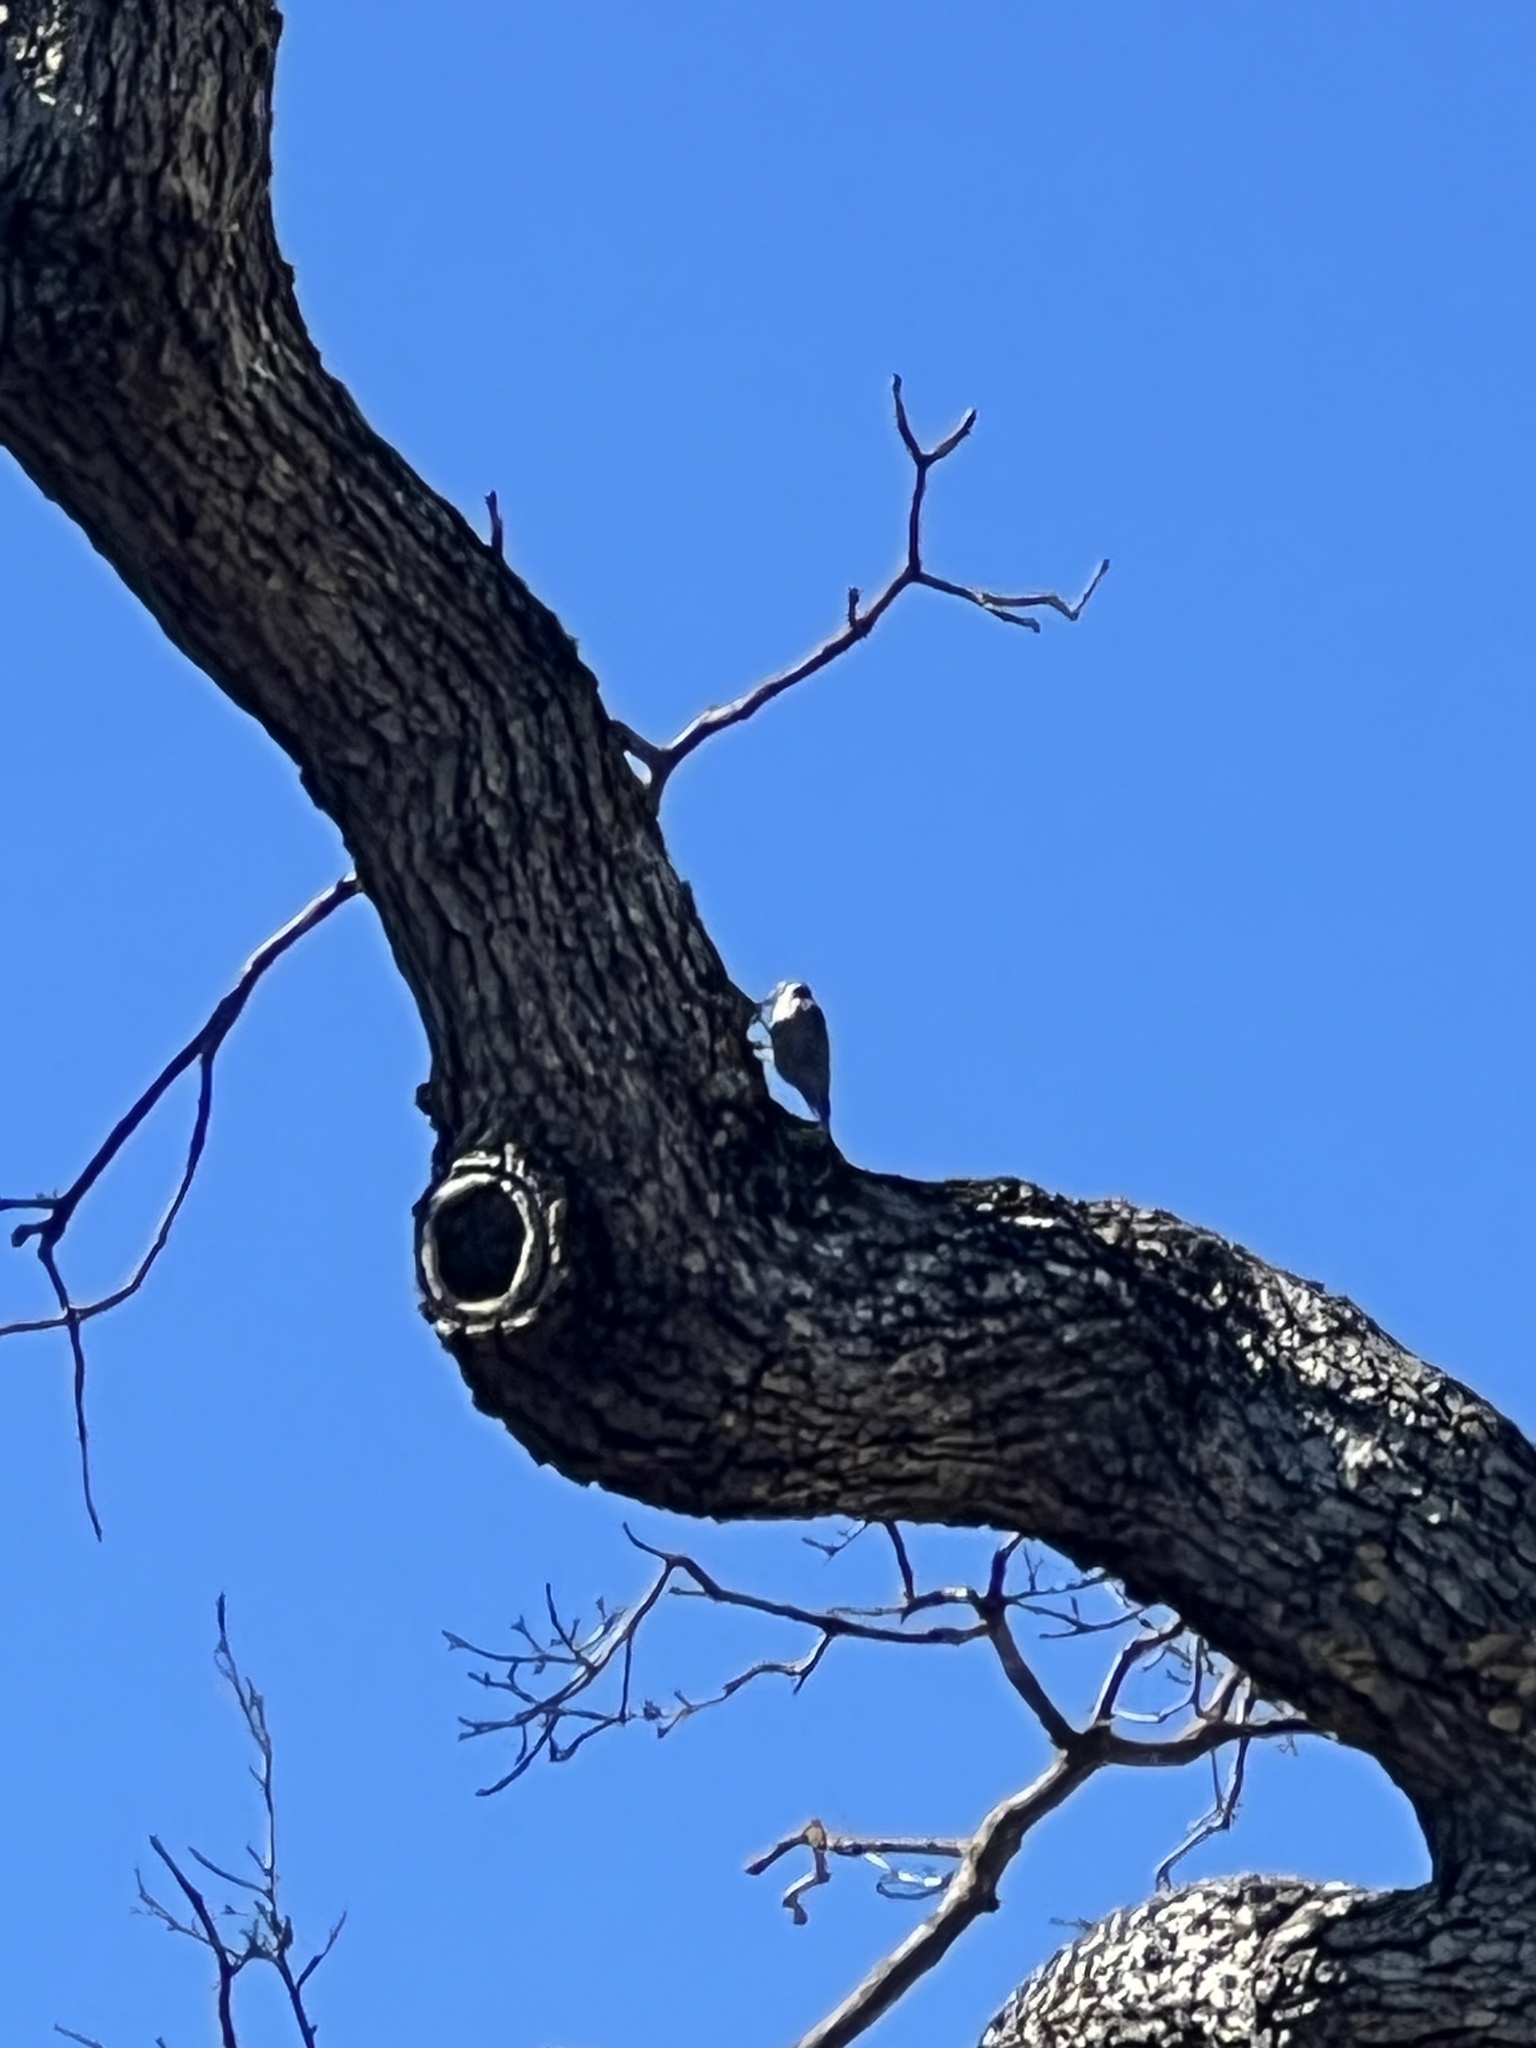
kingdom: Animalia
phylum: Chordata
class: Aves
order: Piciformes
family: Picidae
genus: Dryobates
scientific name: Dryobates nuttallii
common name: Nuttall's woodpecker
